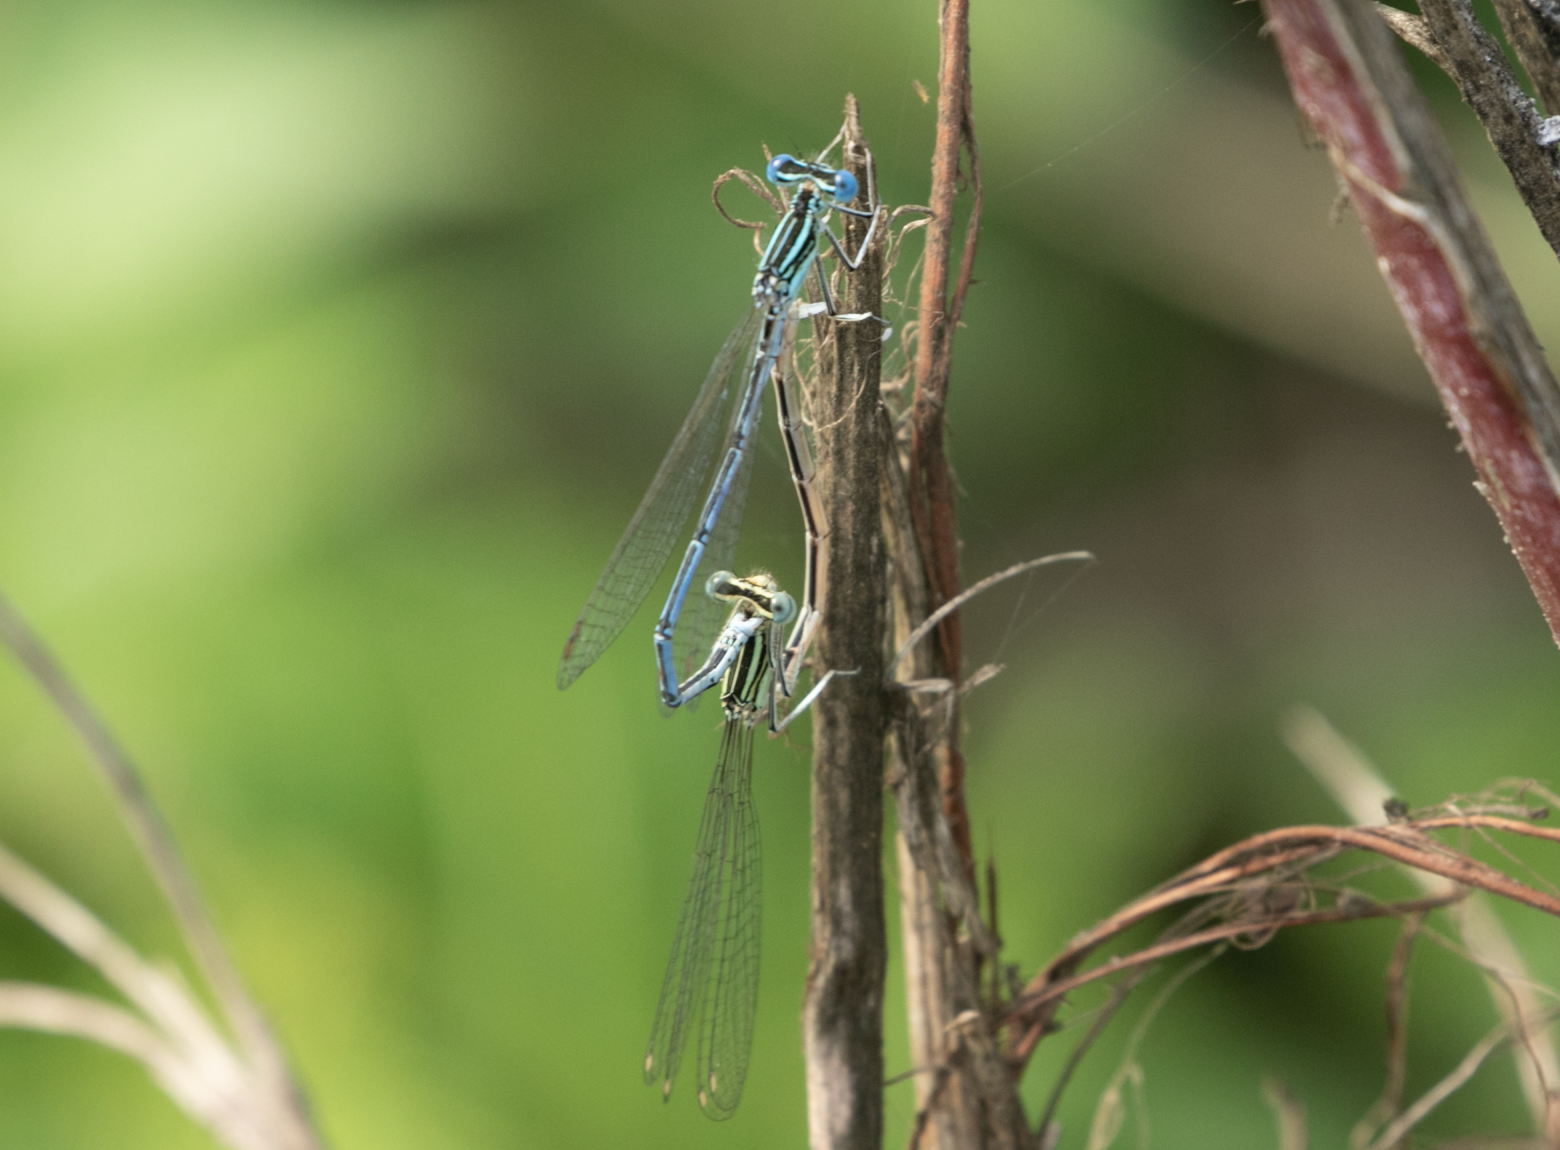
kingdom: Animalia
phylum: Arthropoda
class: Insecta
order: Odonata
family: Platycnemididae
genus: Platycnemis
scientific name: Platycnemis pennipes
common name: White-legged damselfly
